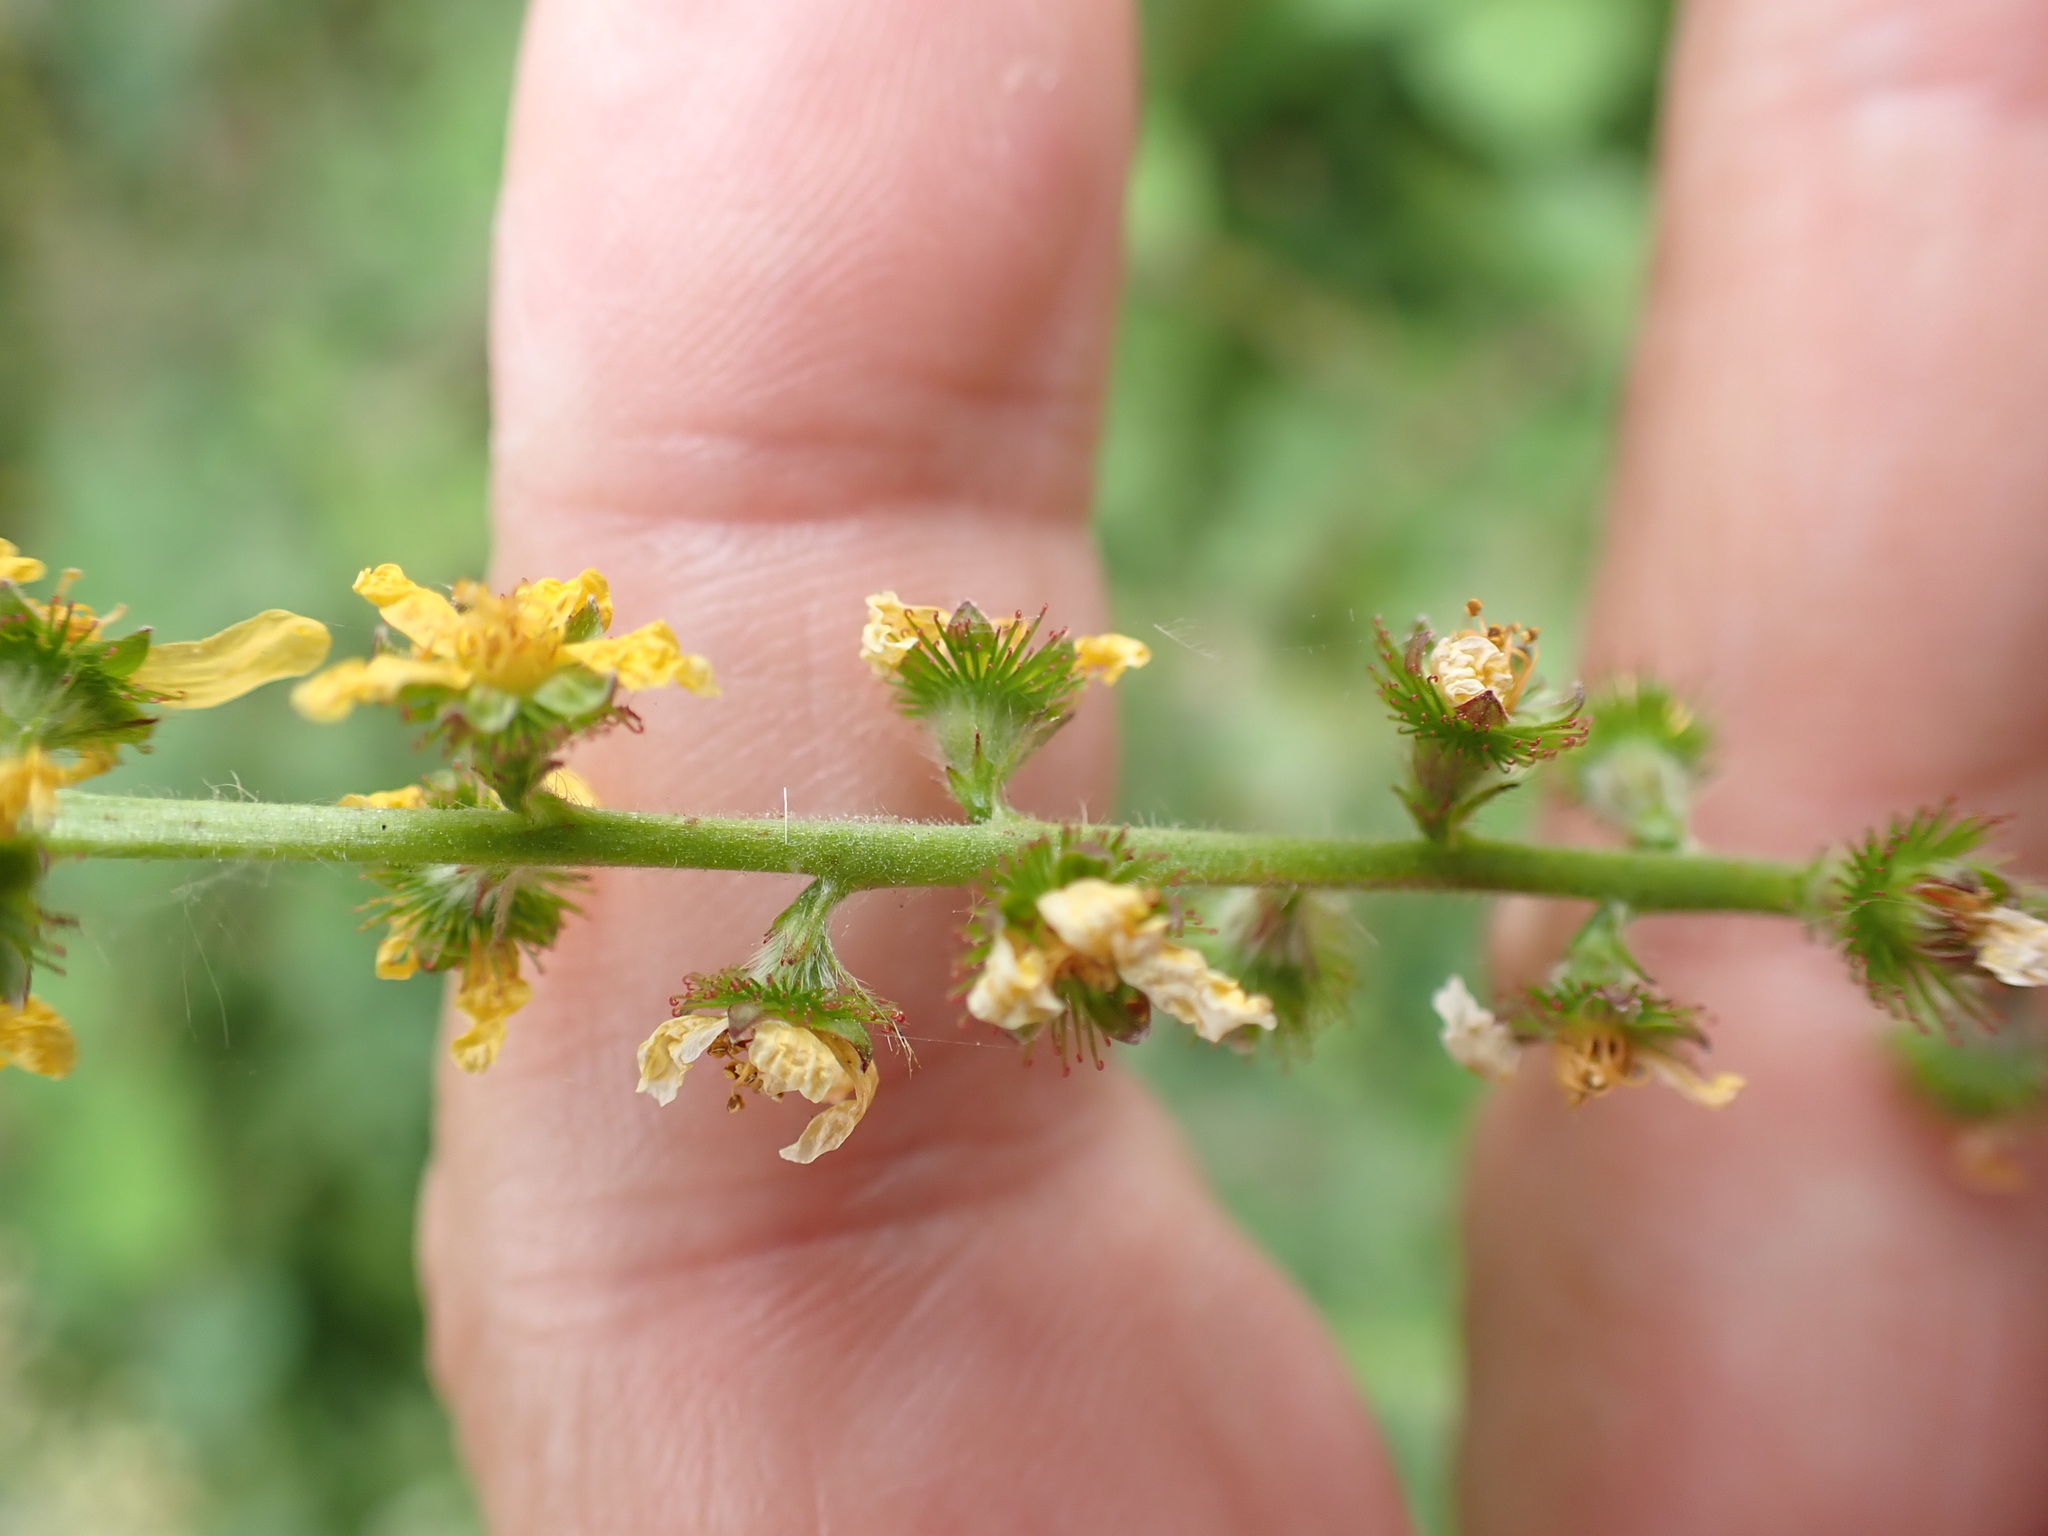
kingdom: Plantae
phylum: Tracheophyta
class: Magnoliopsida
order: Rosales
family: Rosaceae
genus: Agrimonia
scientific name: Agrimonia eupatoria
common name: Agrimony
